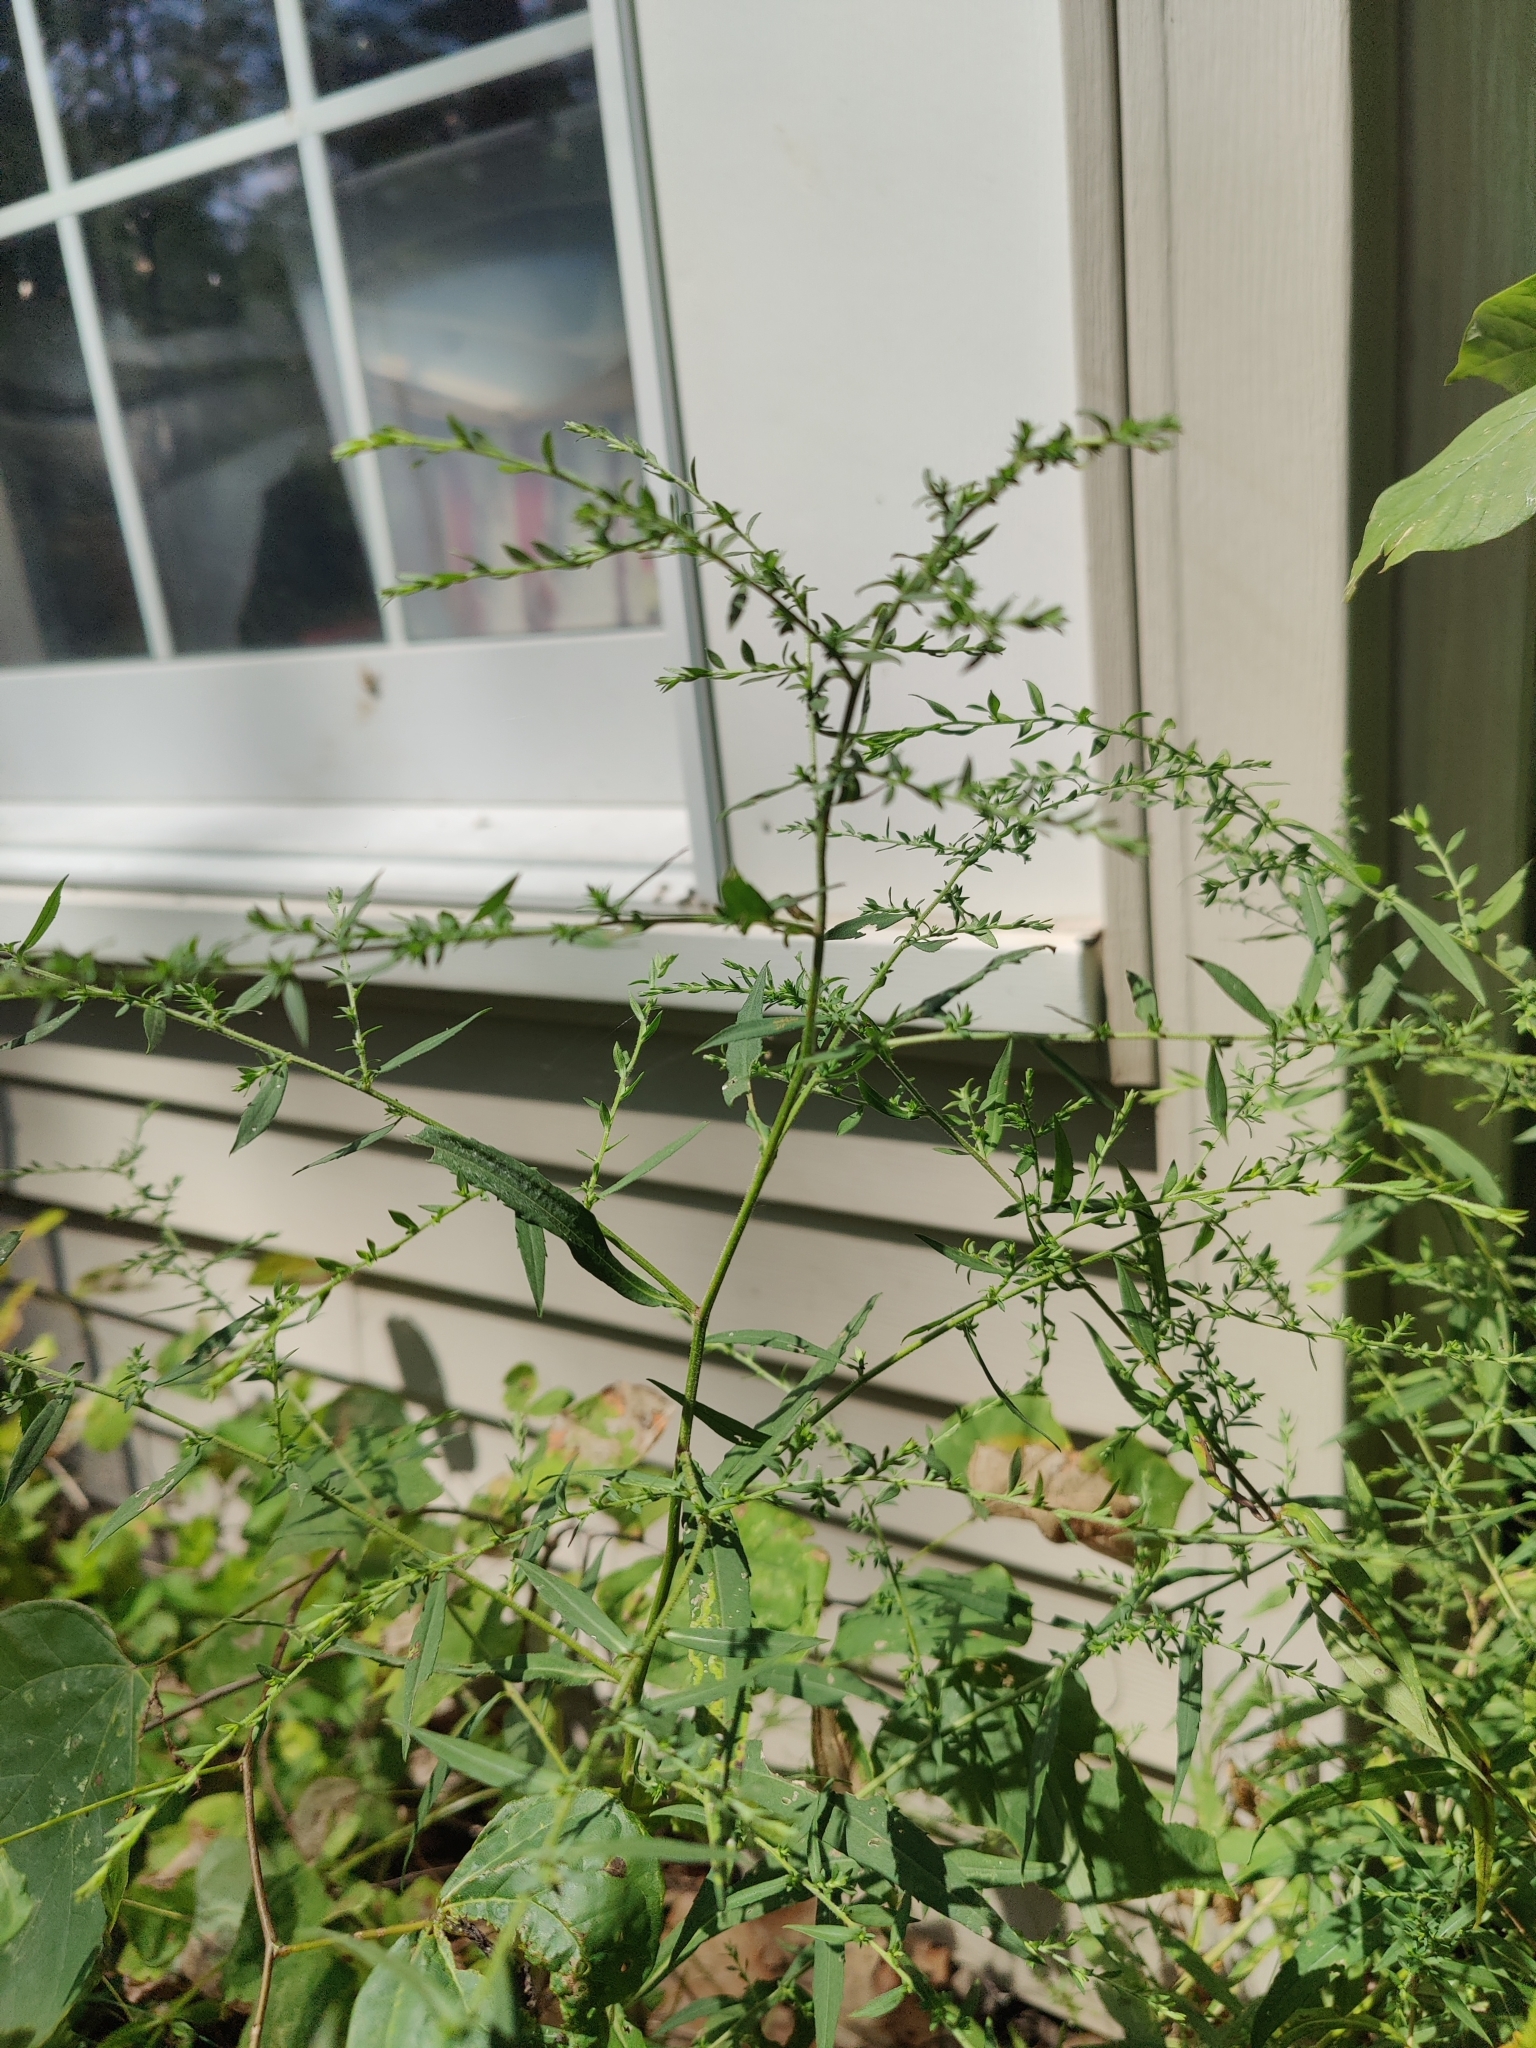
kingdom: Plantae
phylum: Tracheophyta
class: Magnoliopsida
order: Asterales
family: Asteraceae
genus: Symphyotrichum
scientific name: Symphyotrichum lateriflorum
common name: Calico aster
